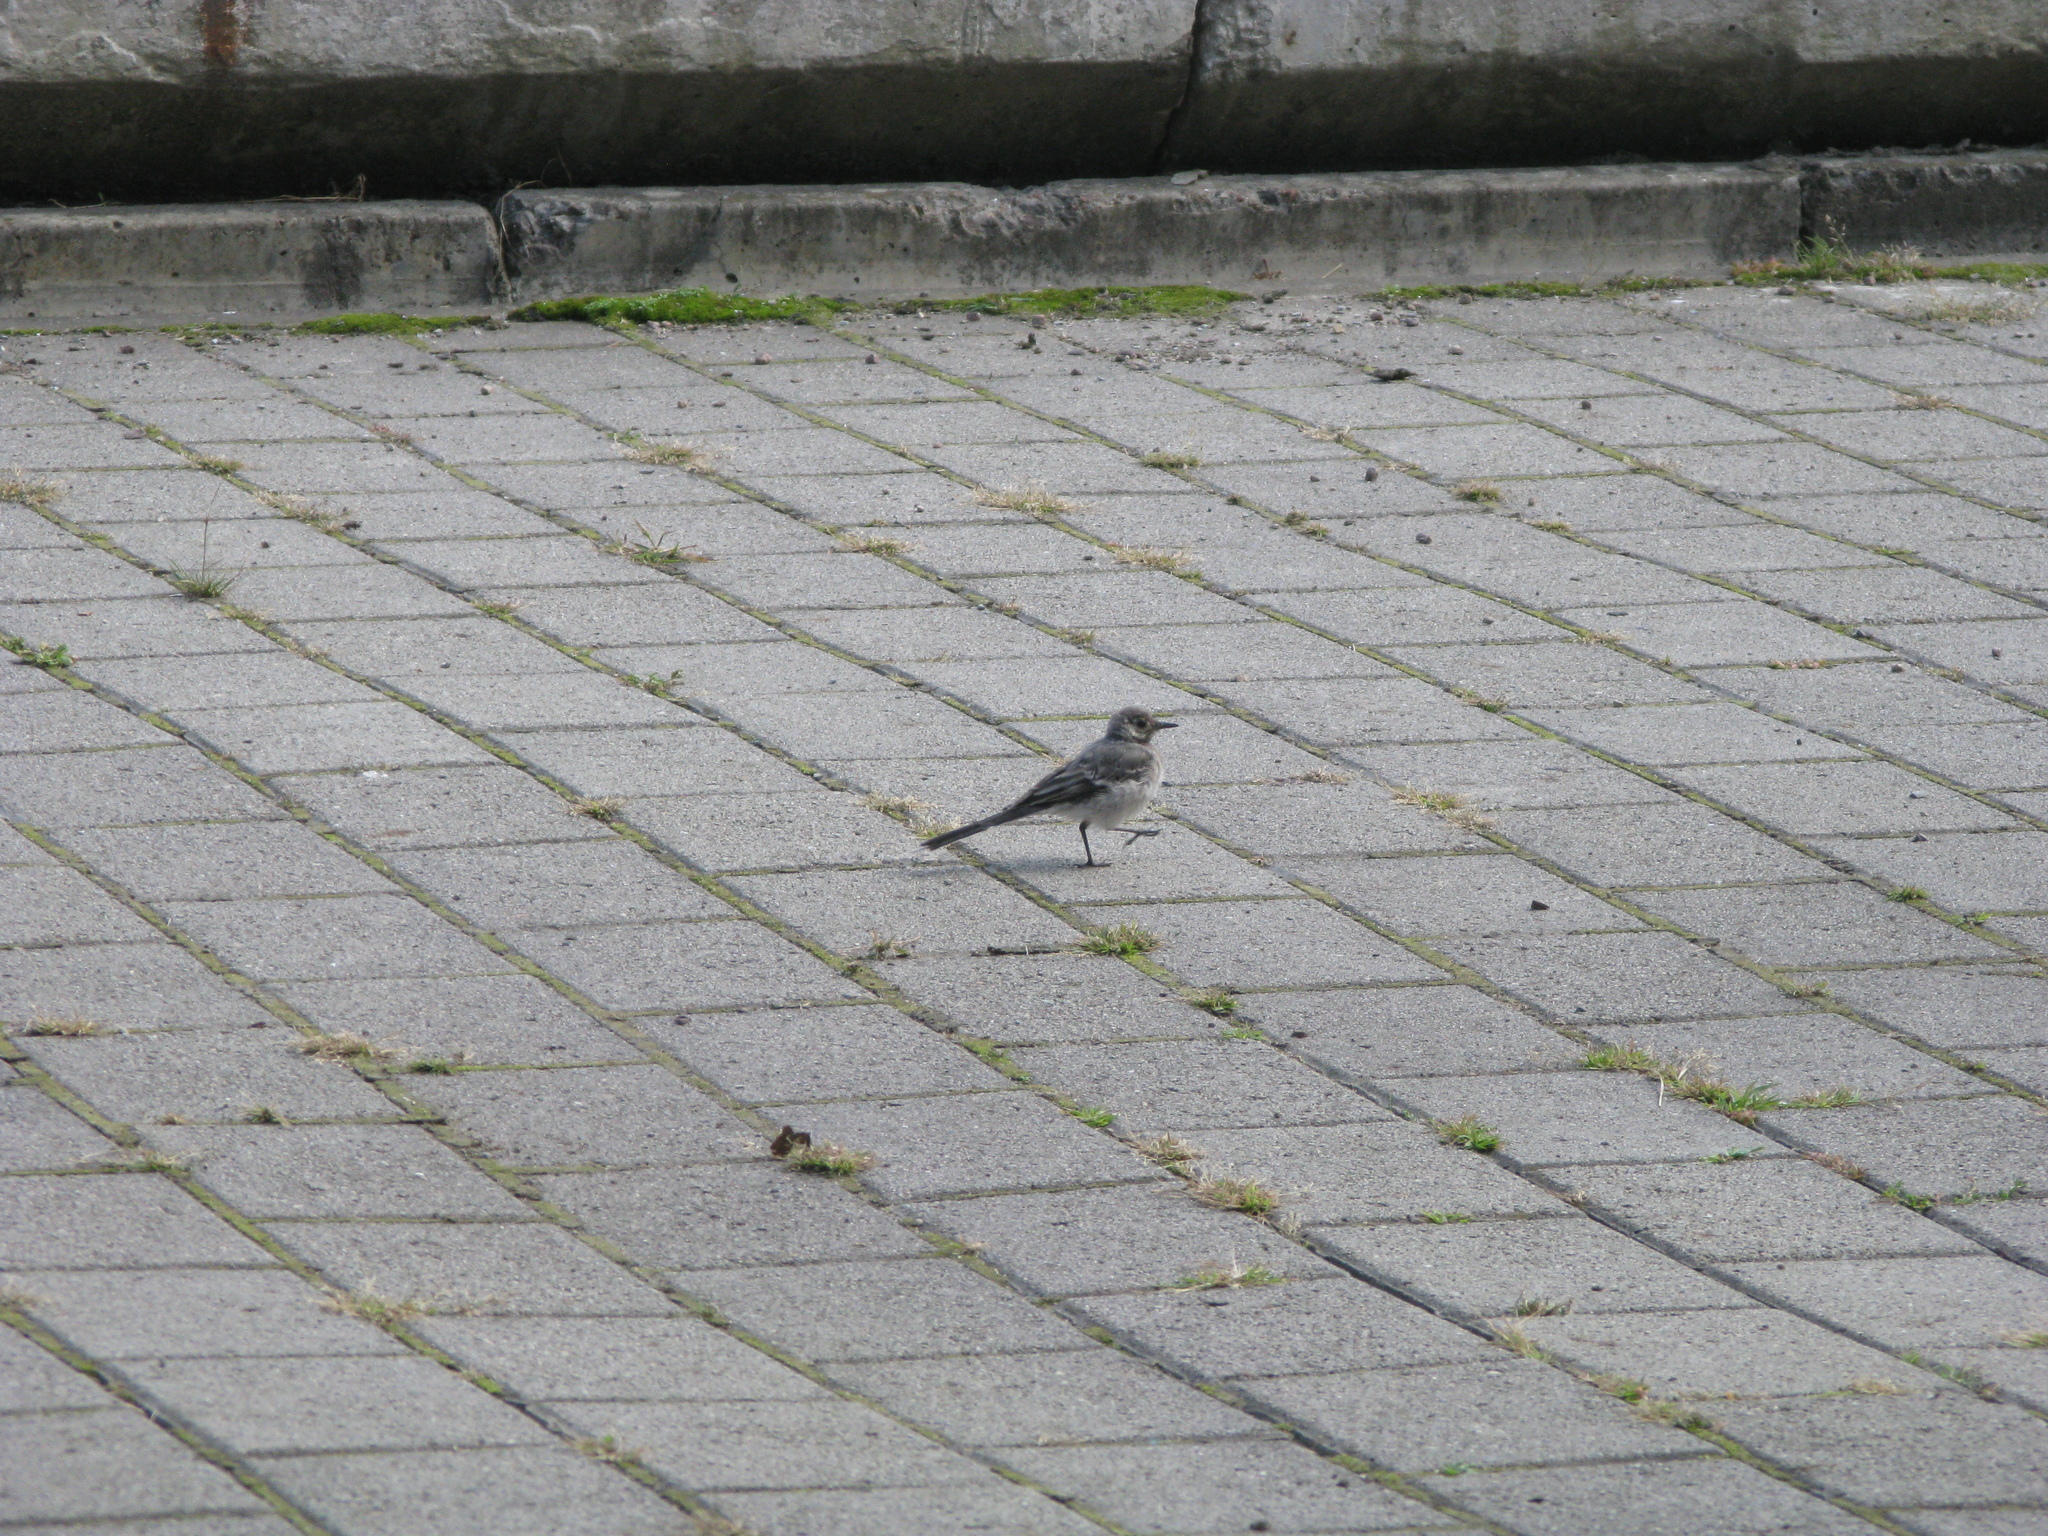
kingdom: Animalia
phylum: Chordata
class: Aves
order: Passeriformes
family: Motacillidae
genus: Motacilla
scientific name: Motacilla alba
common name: White wagtail
